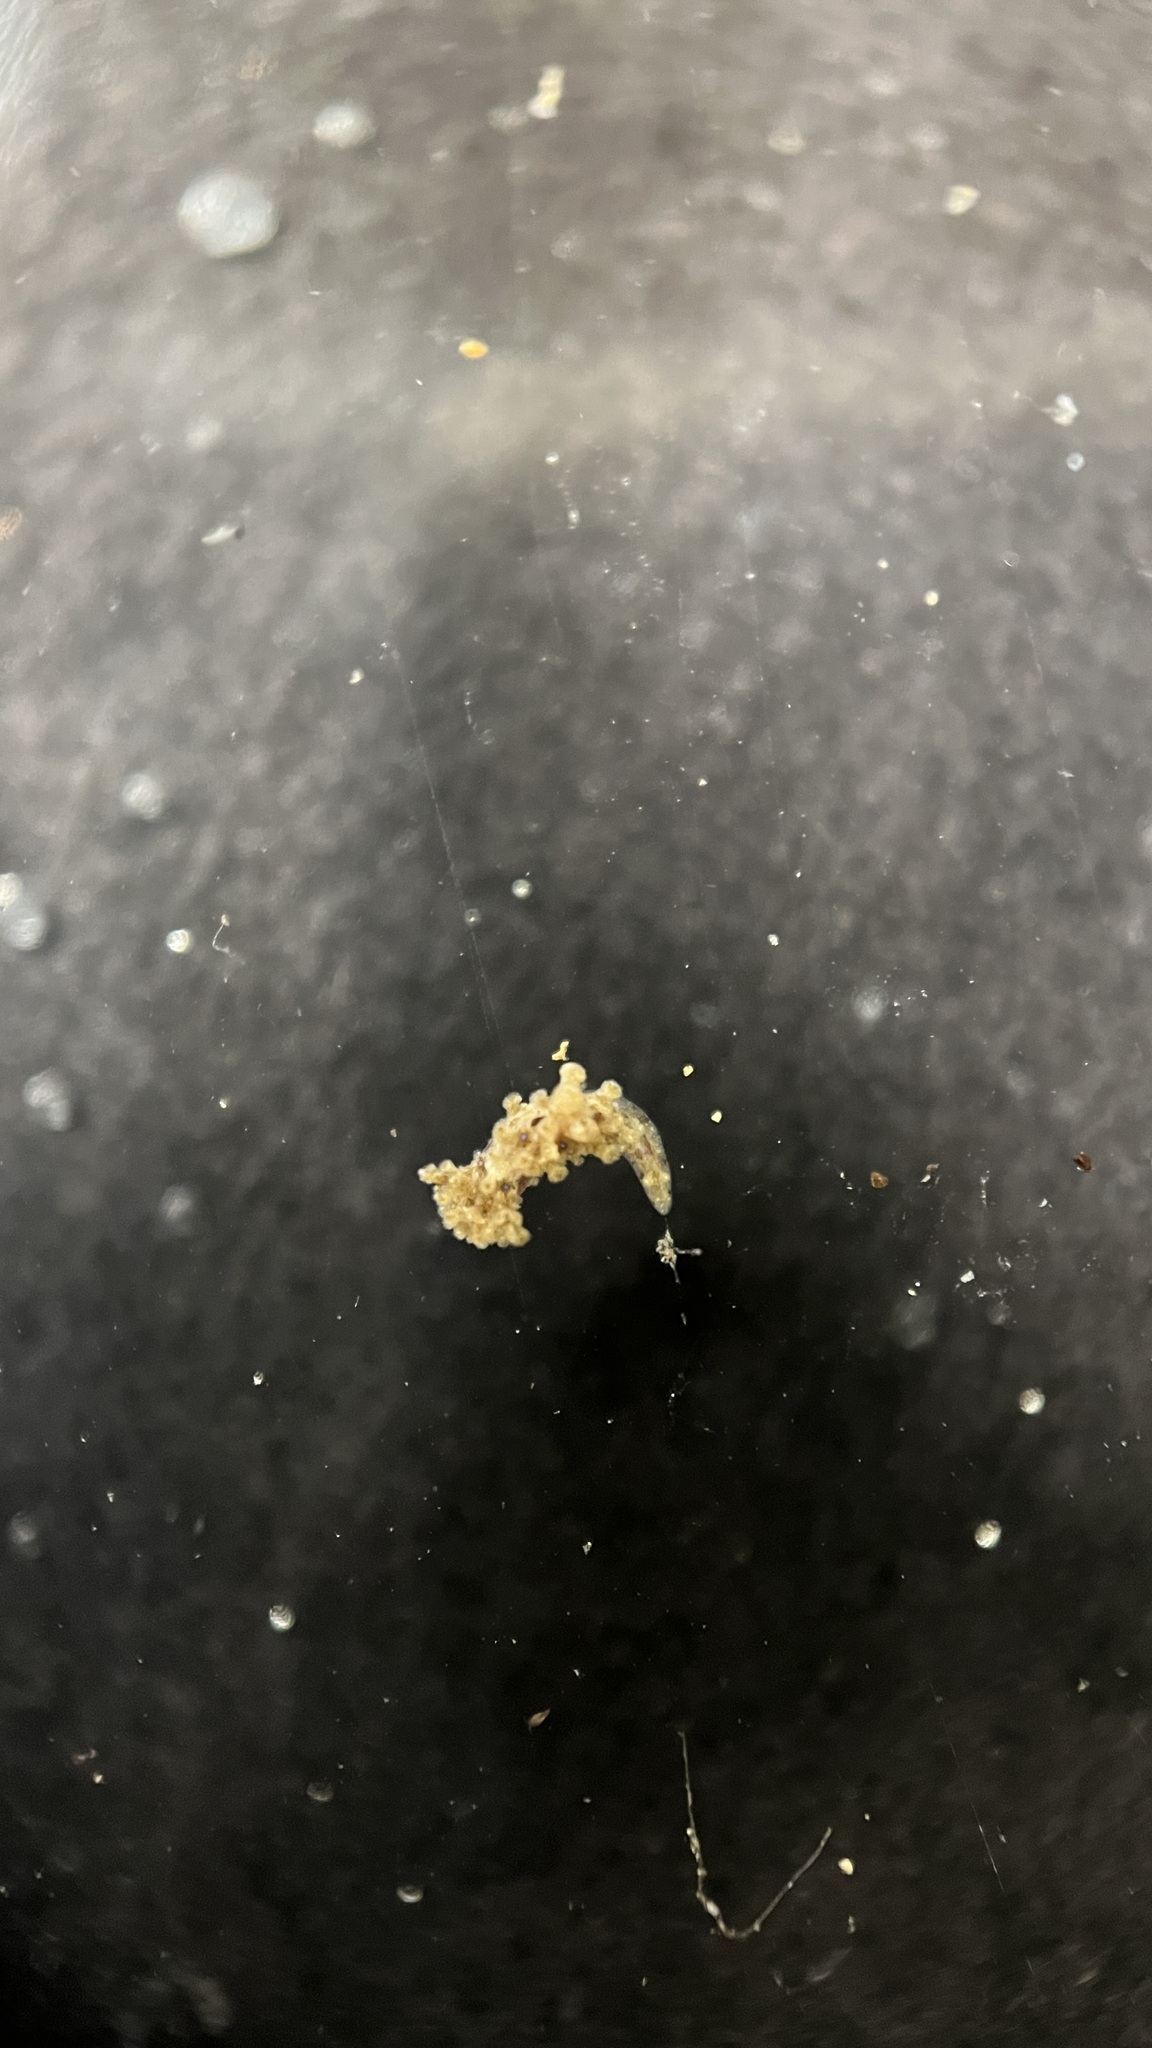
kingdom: Animalia
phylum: Mollusca
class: Gastropoda
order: Nudibranchia
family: Aegiridae
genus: Aegires
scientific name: Aegires exeches
